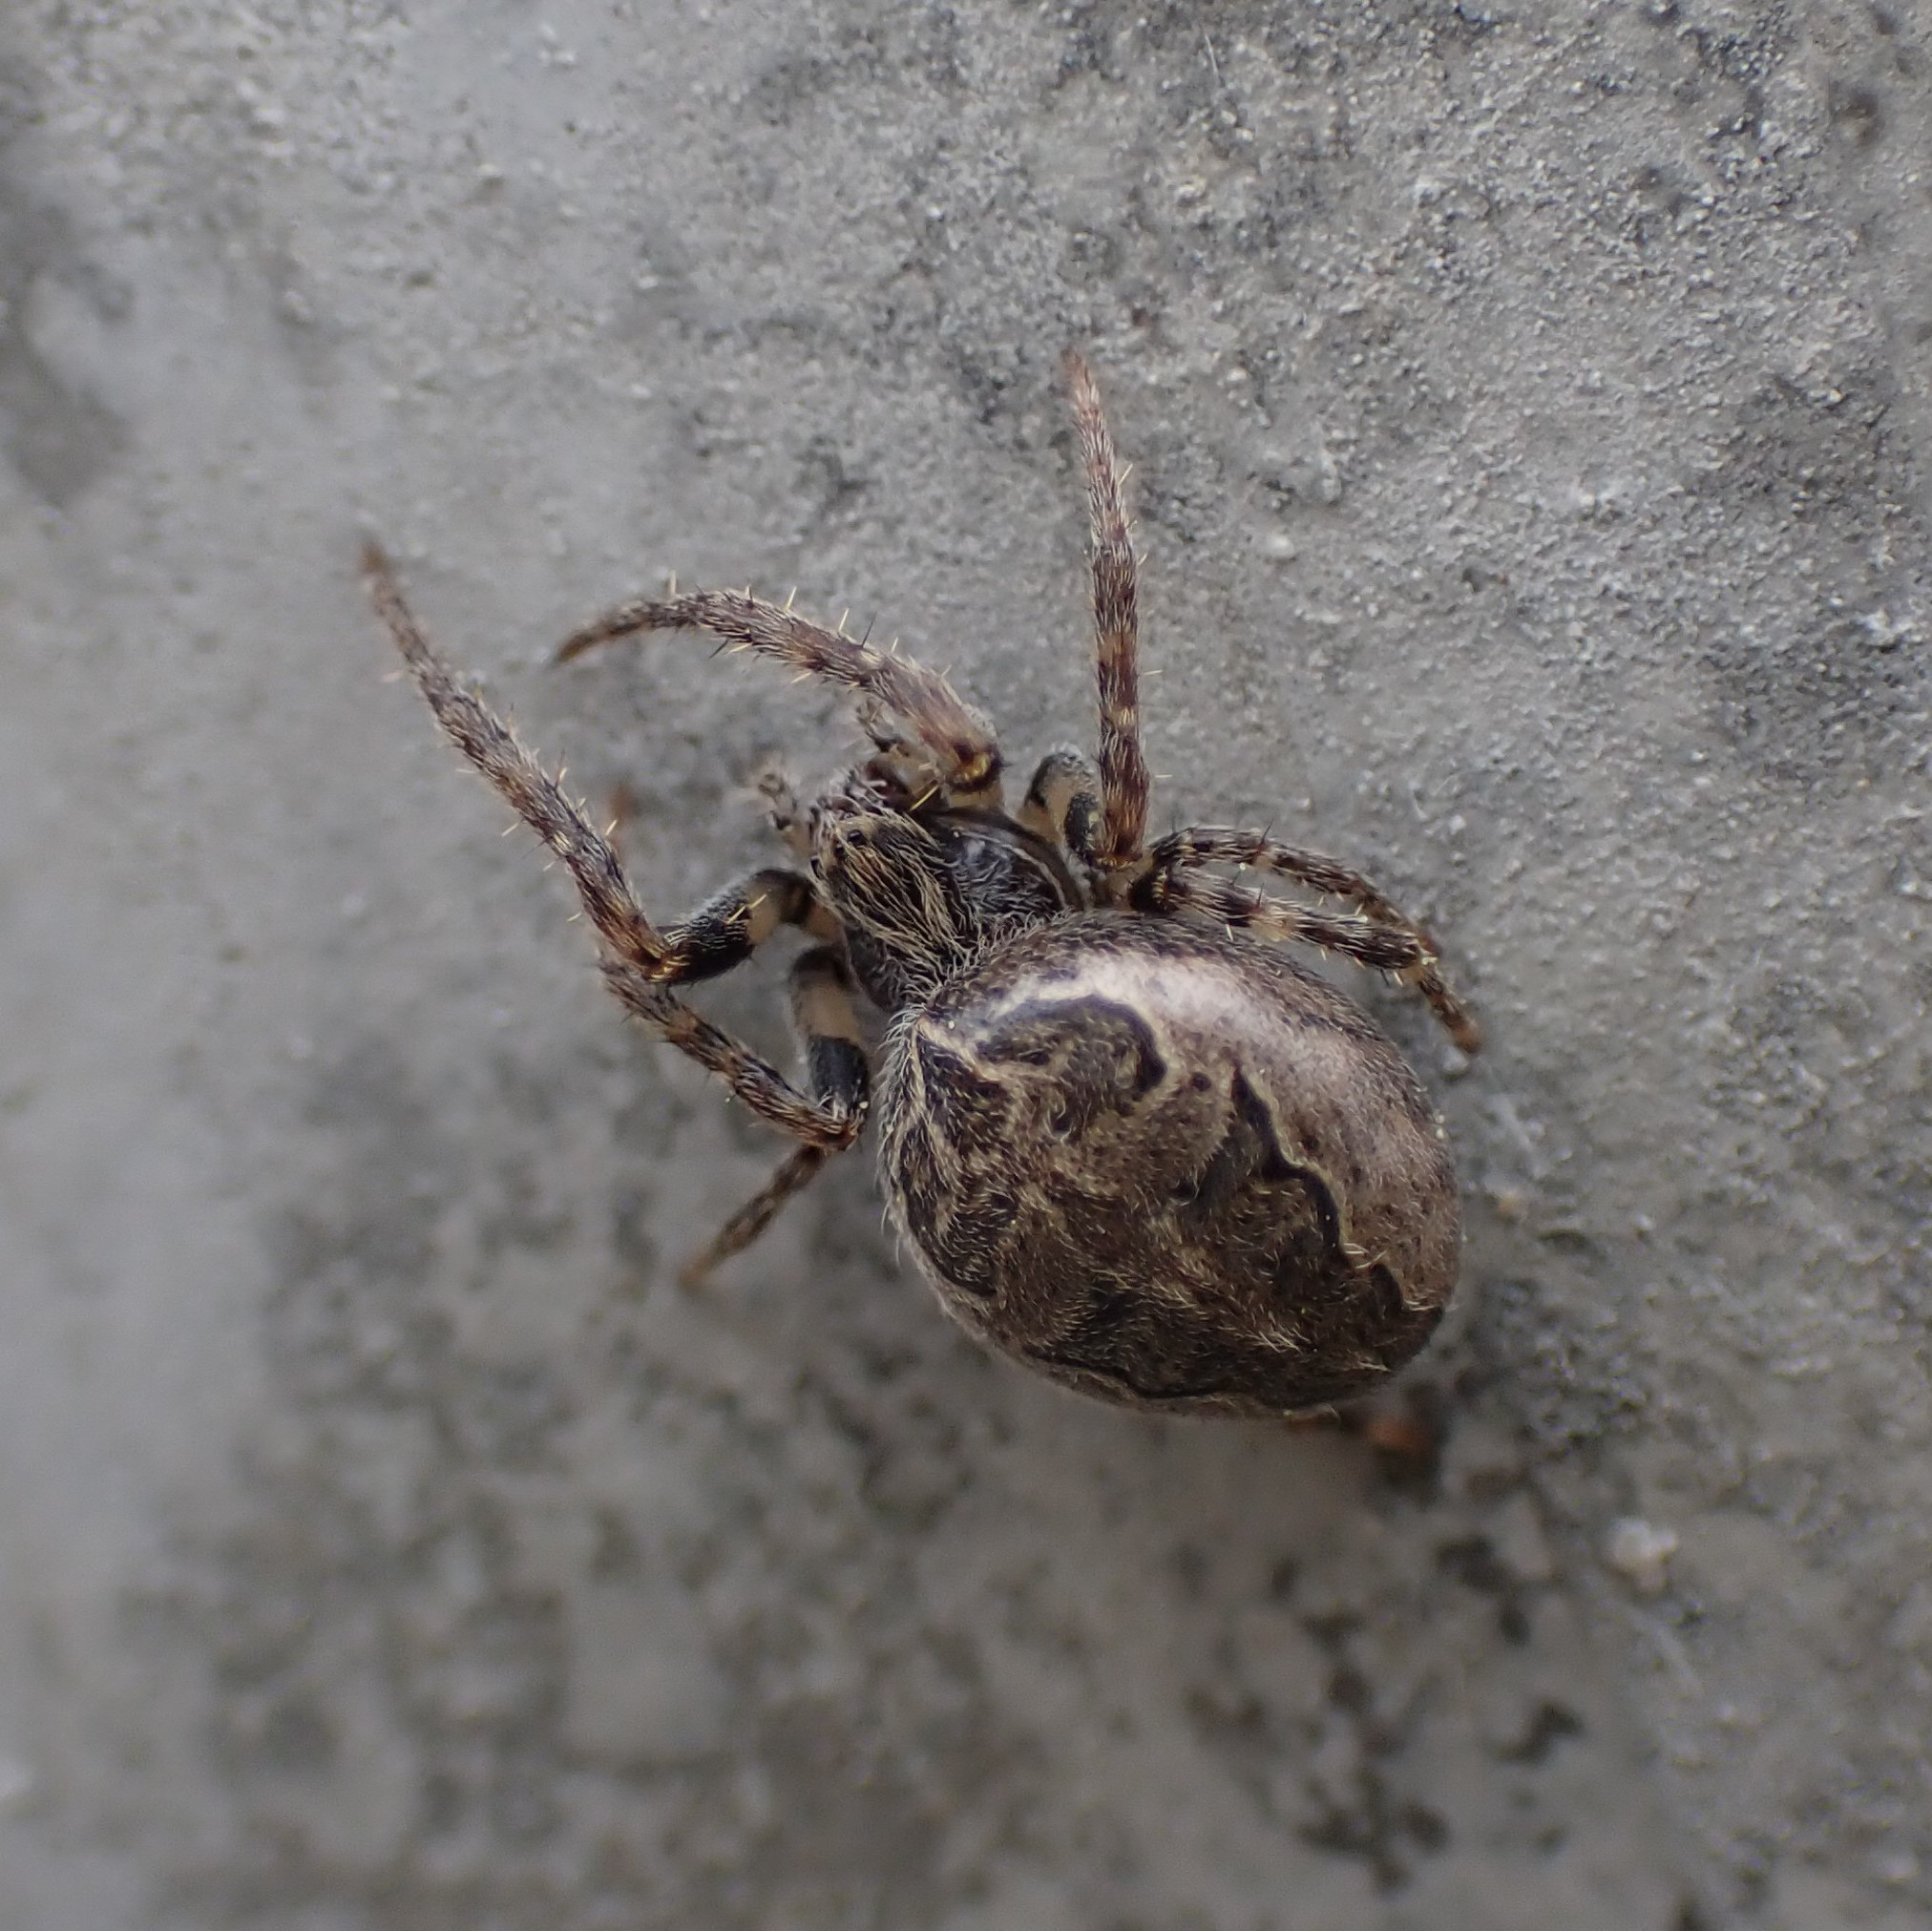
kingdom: Animalia
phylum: Arthropoda
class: Arachnida
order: Araneae
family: Araneidae
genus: Larinioides
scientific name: Larinioides sclopetarius
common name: Bridge orbweaver
